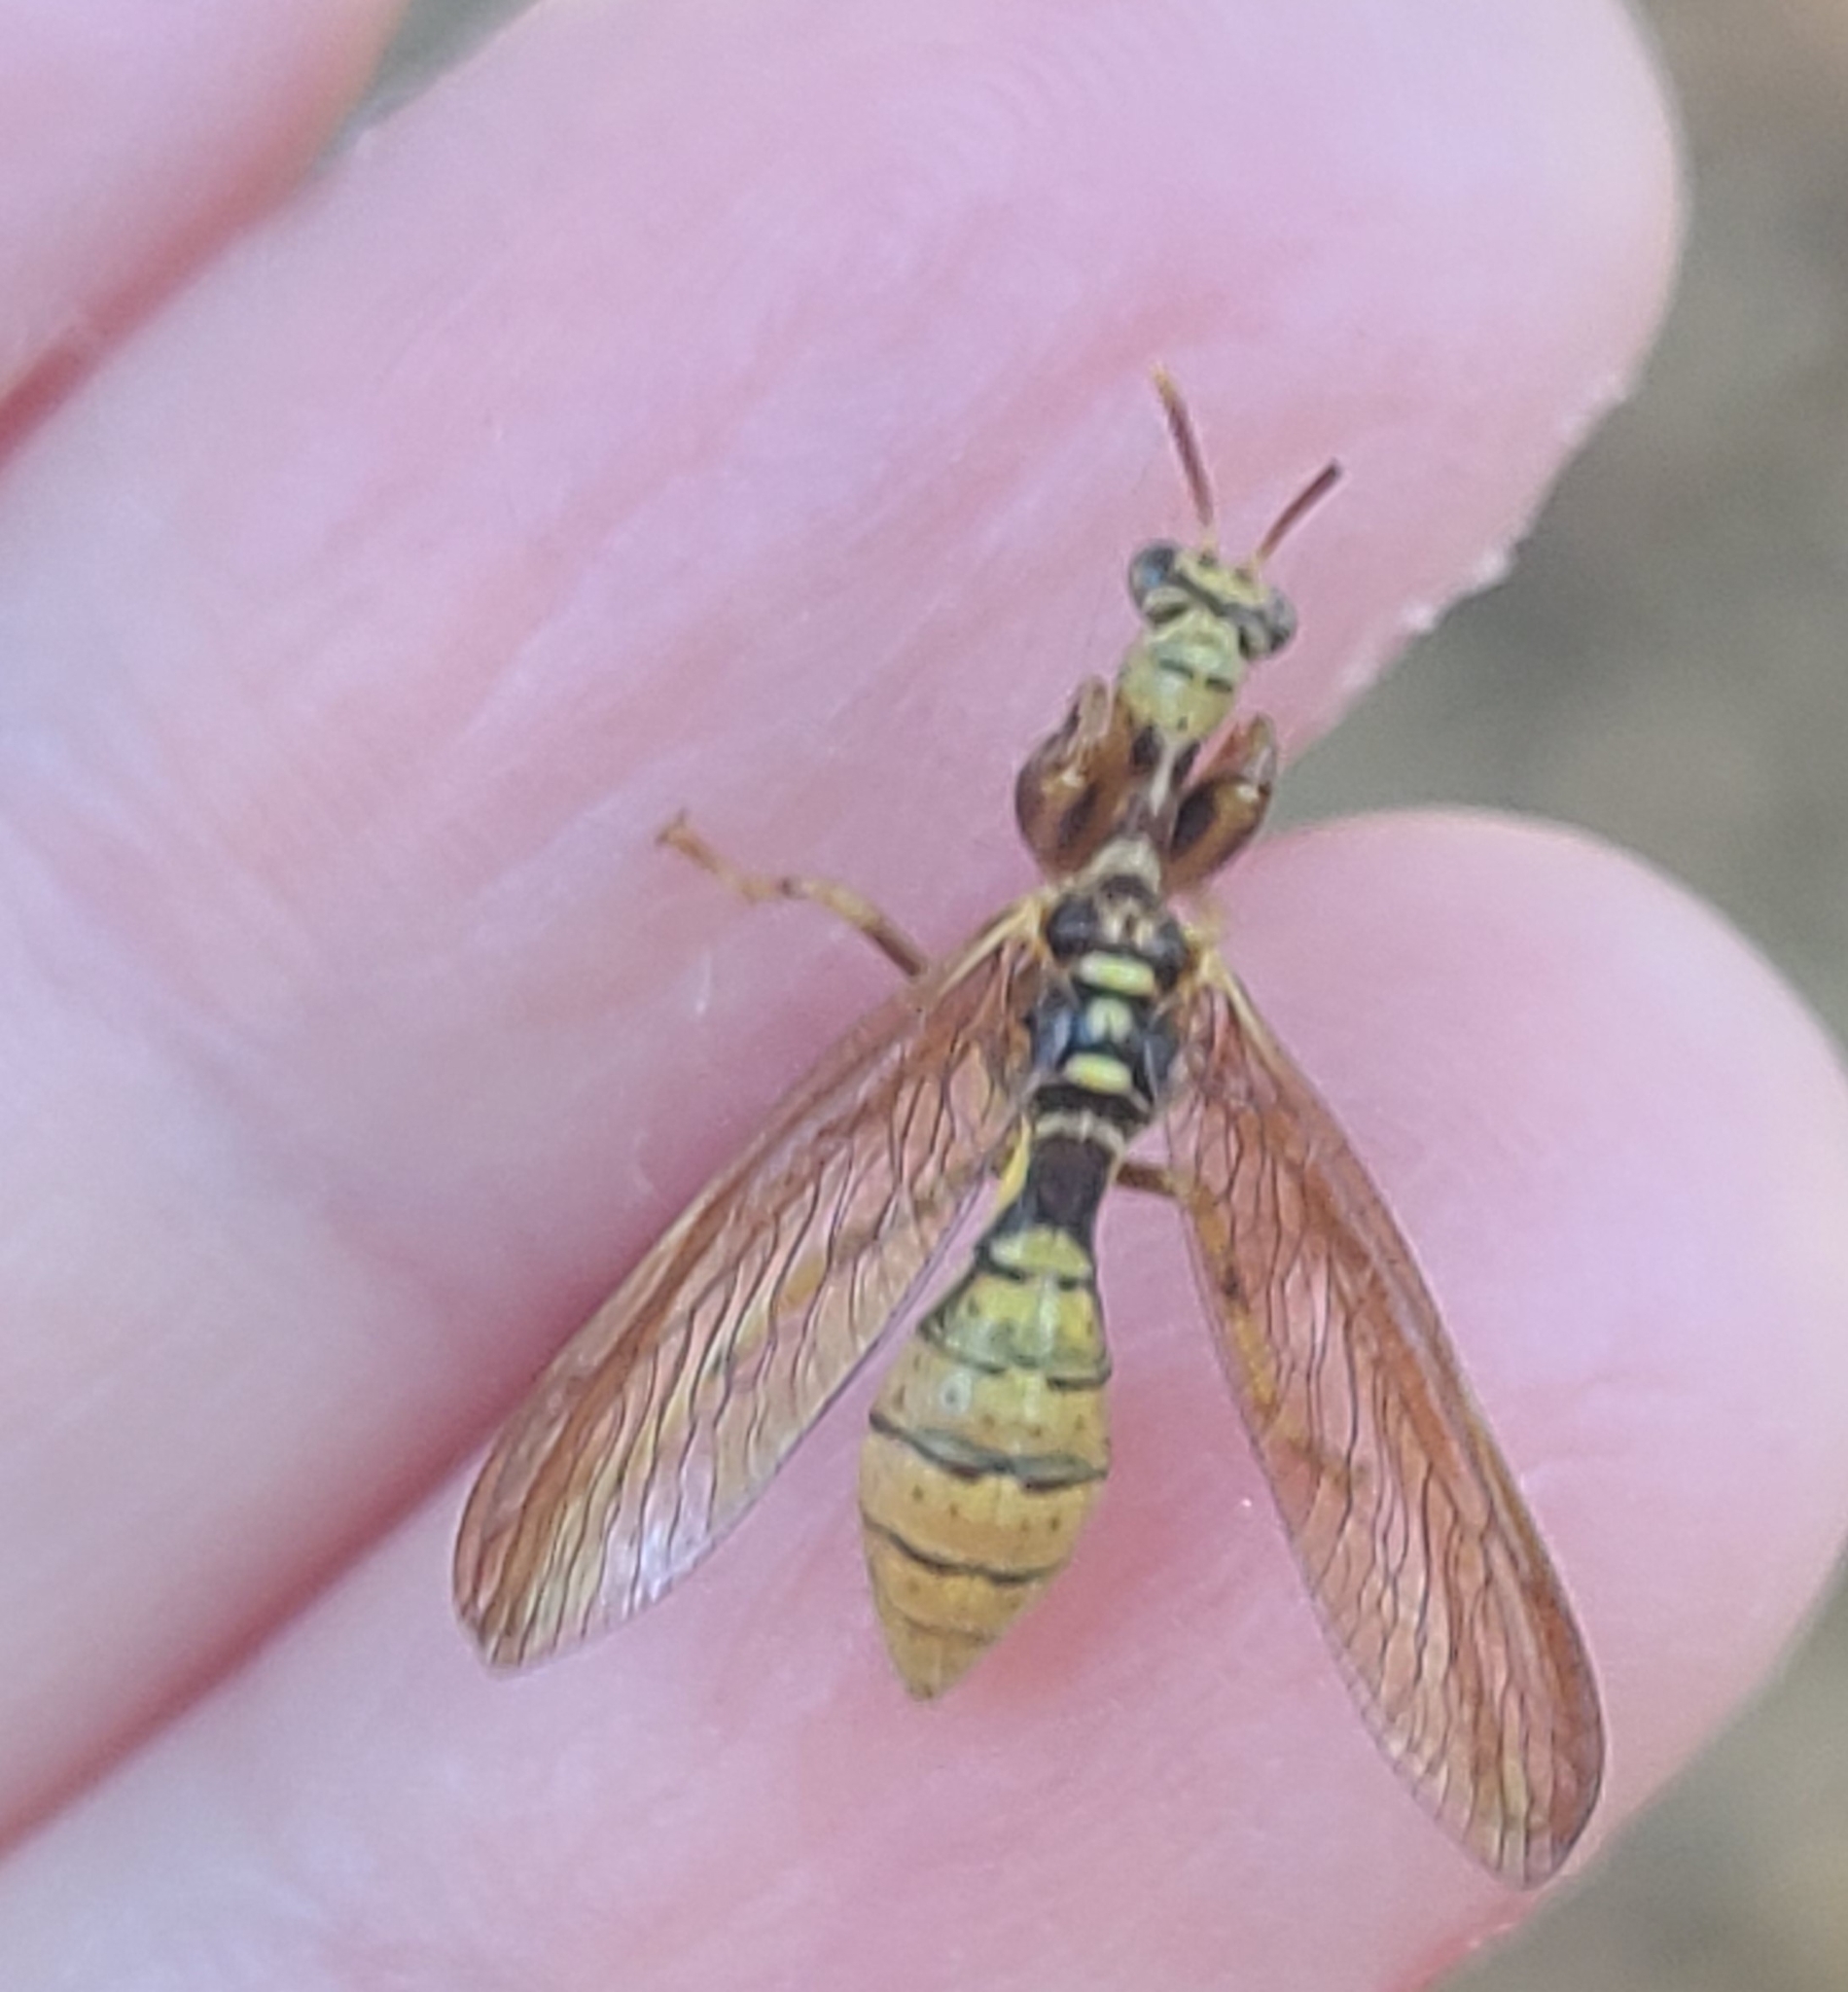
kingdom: Animalia
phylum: Arthropoda
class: Insecta
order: Neuroptera
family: Mantispidae
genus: Climaciella
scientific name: Climaciella brunnea
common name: Brown wasp mantidfly
